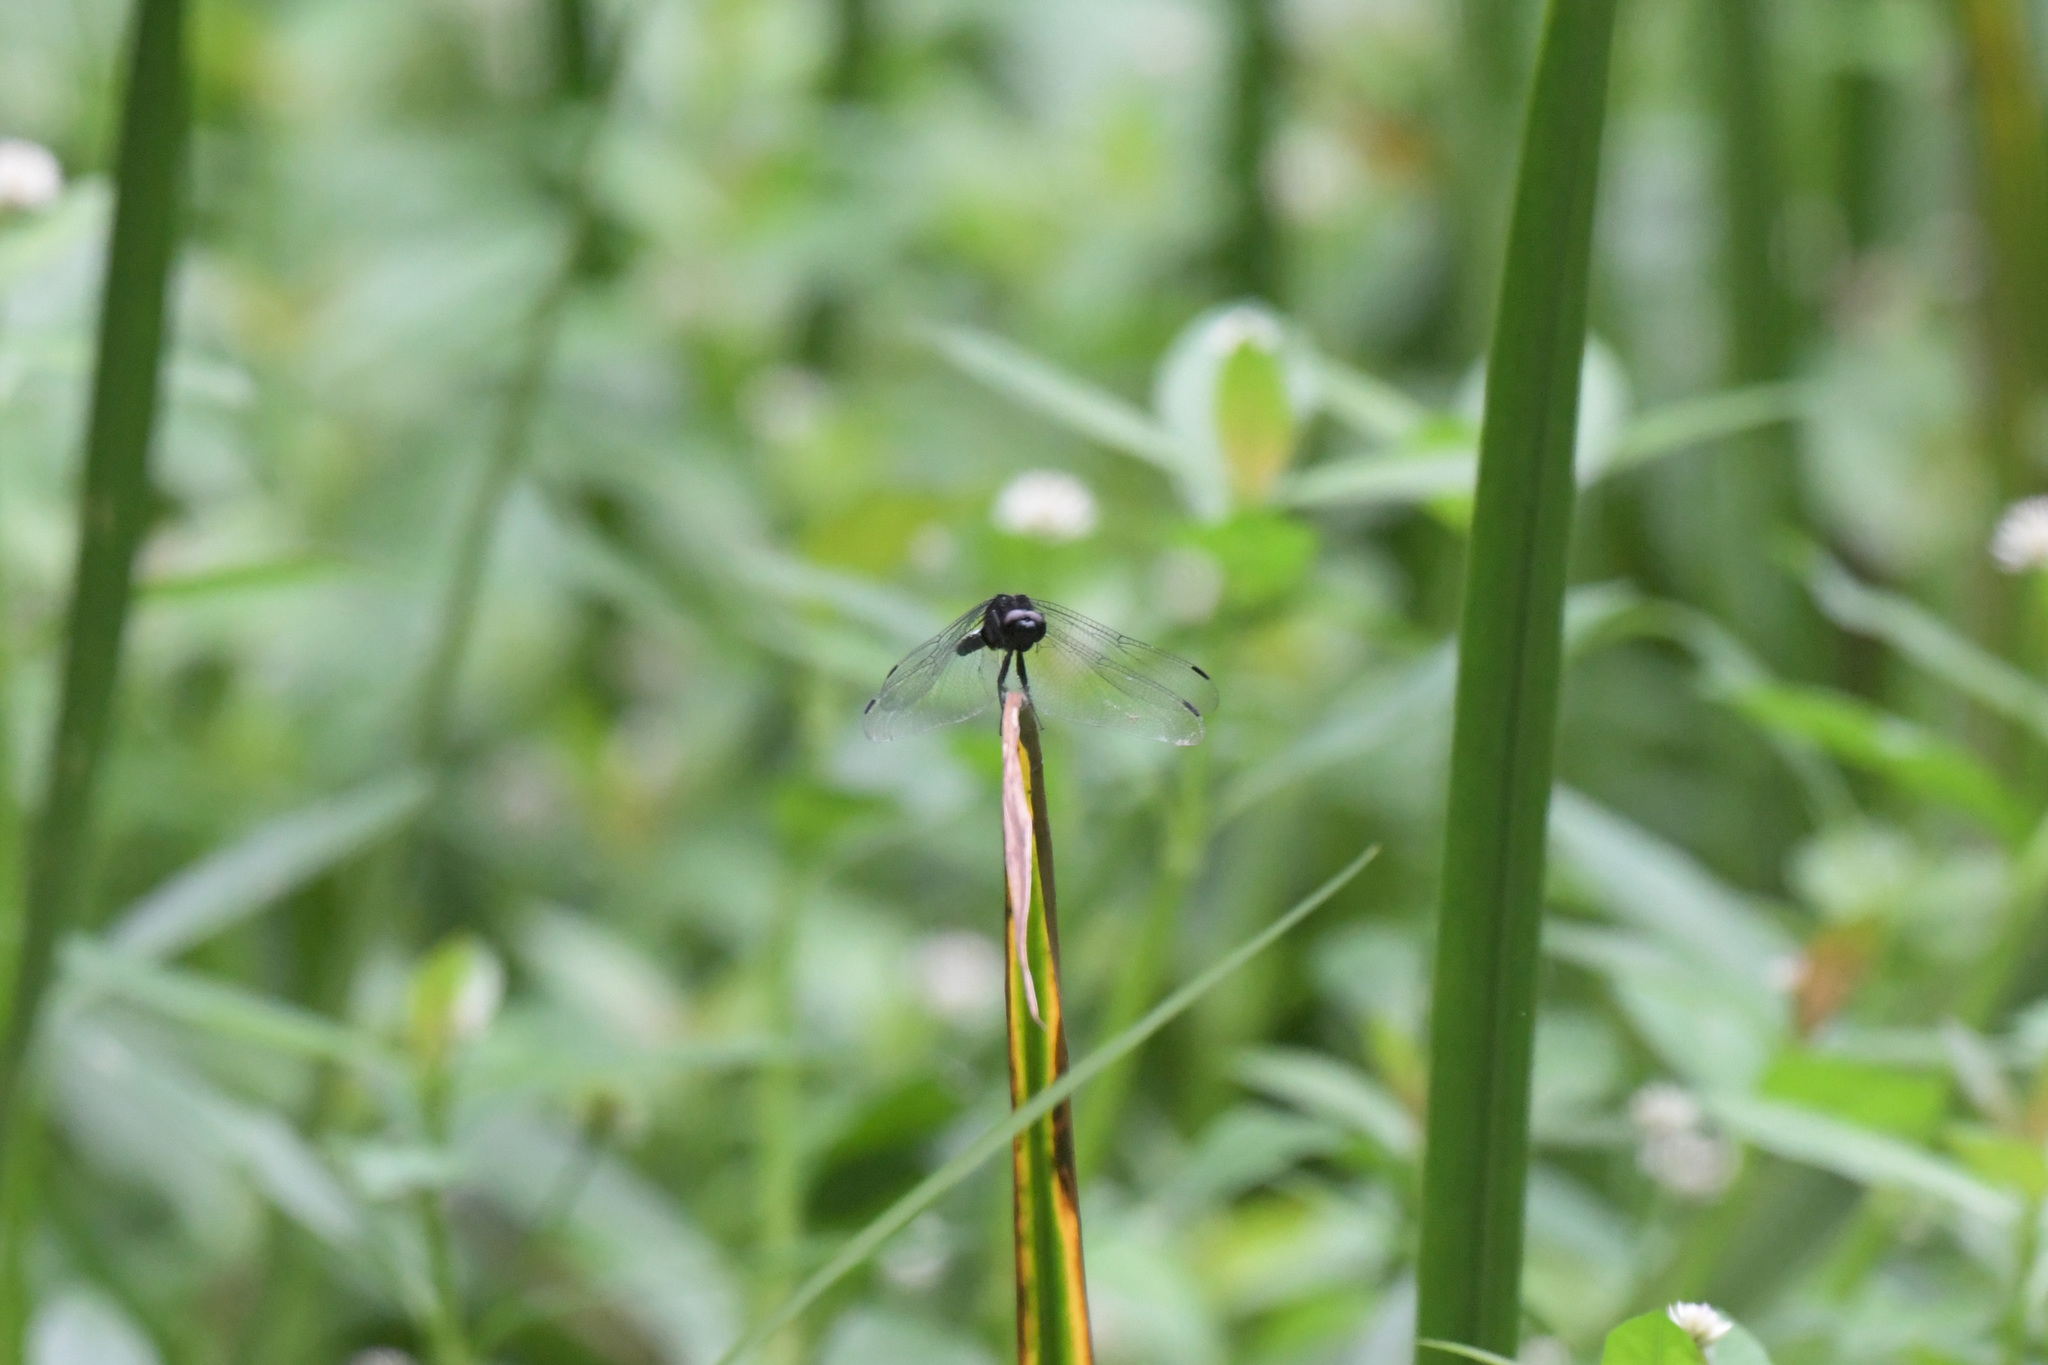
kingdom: Animalia
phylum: Arthropoda
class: Insecta
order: Odonata
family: Libellulidae
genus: Orthetrum
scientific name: Orthetrum triangulare
